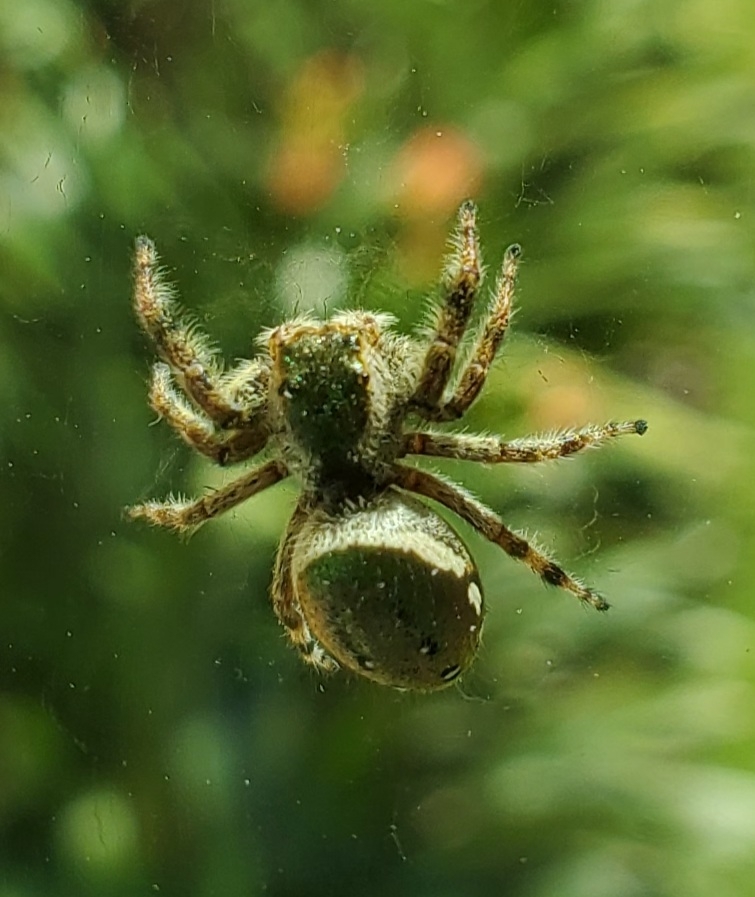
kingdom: Animalia
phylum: Arthropoda
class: Arachnida
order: Araneae
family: Salticidae
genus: Paraphidippus
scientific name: Paraphidippus aurantius
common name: Jumping spiders
